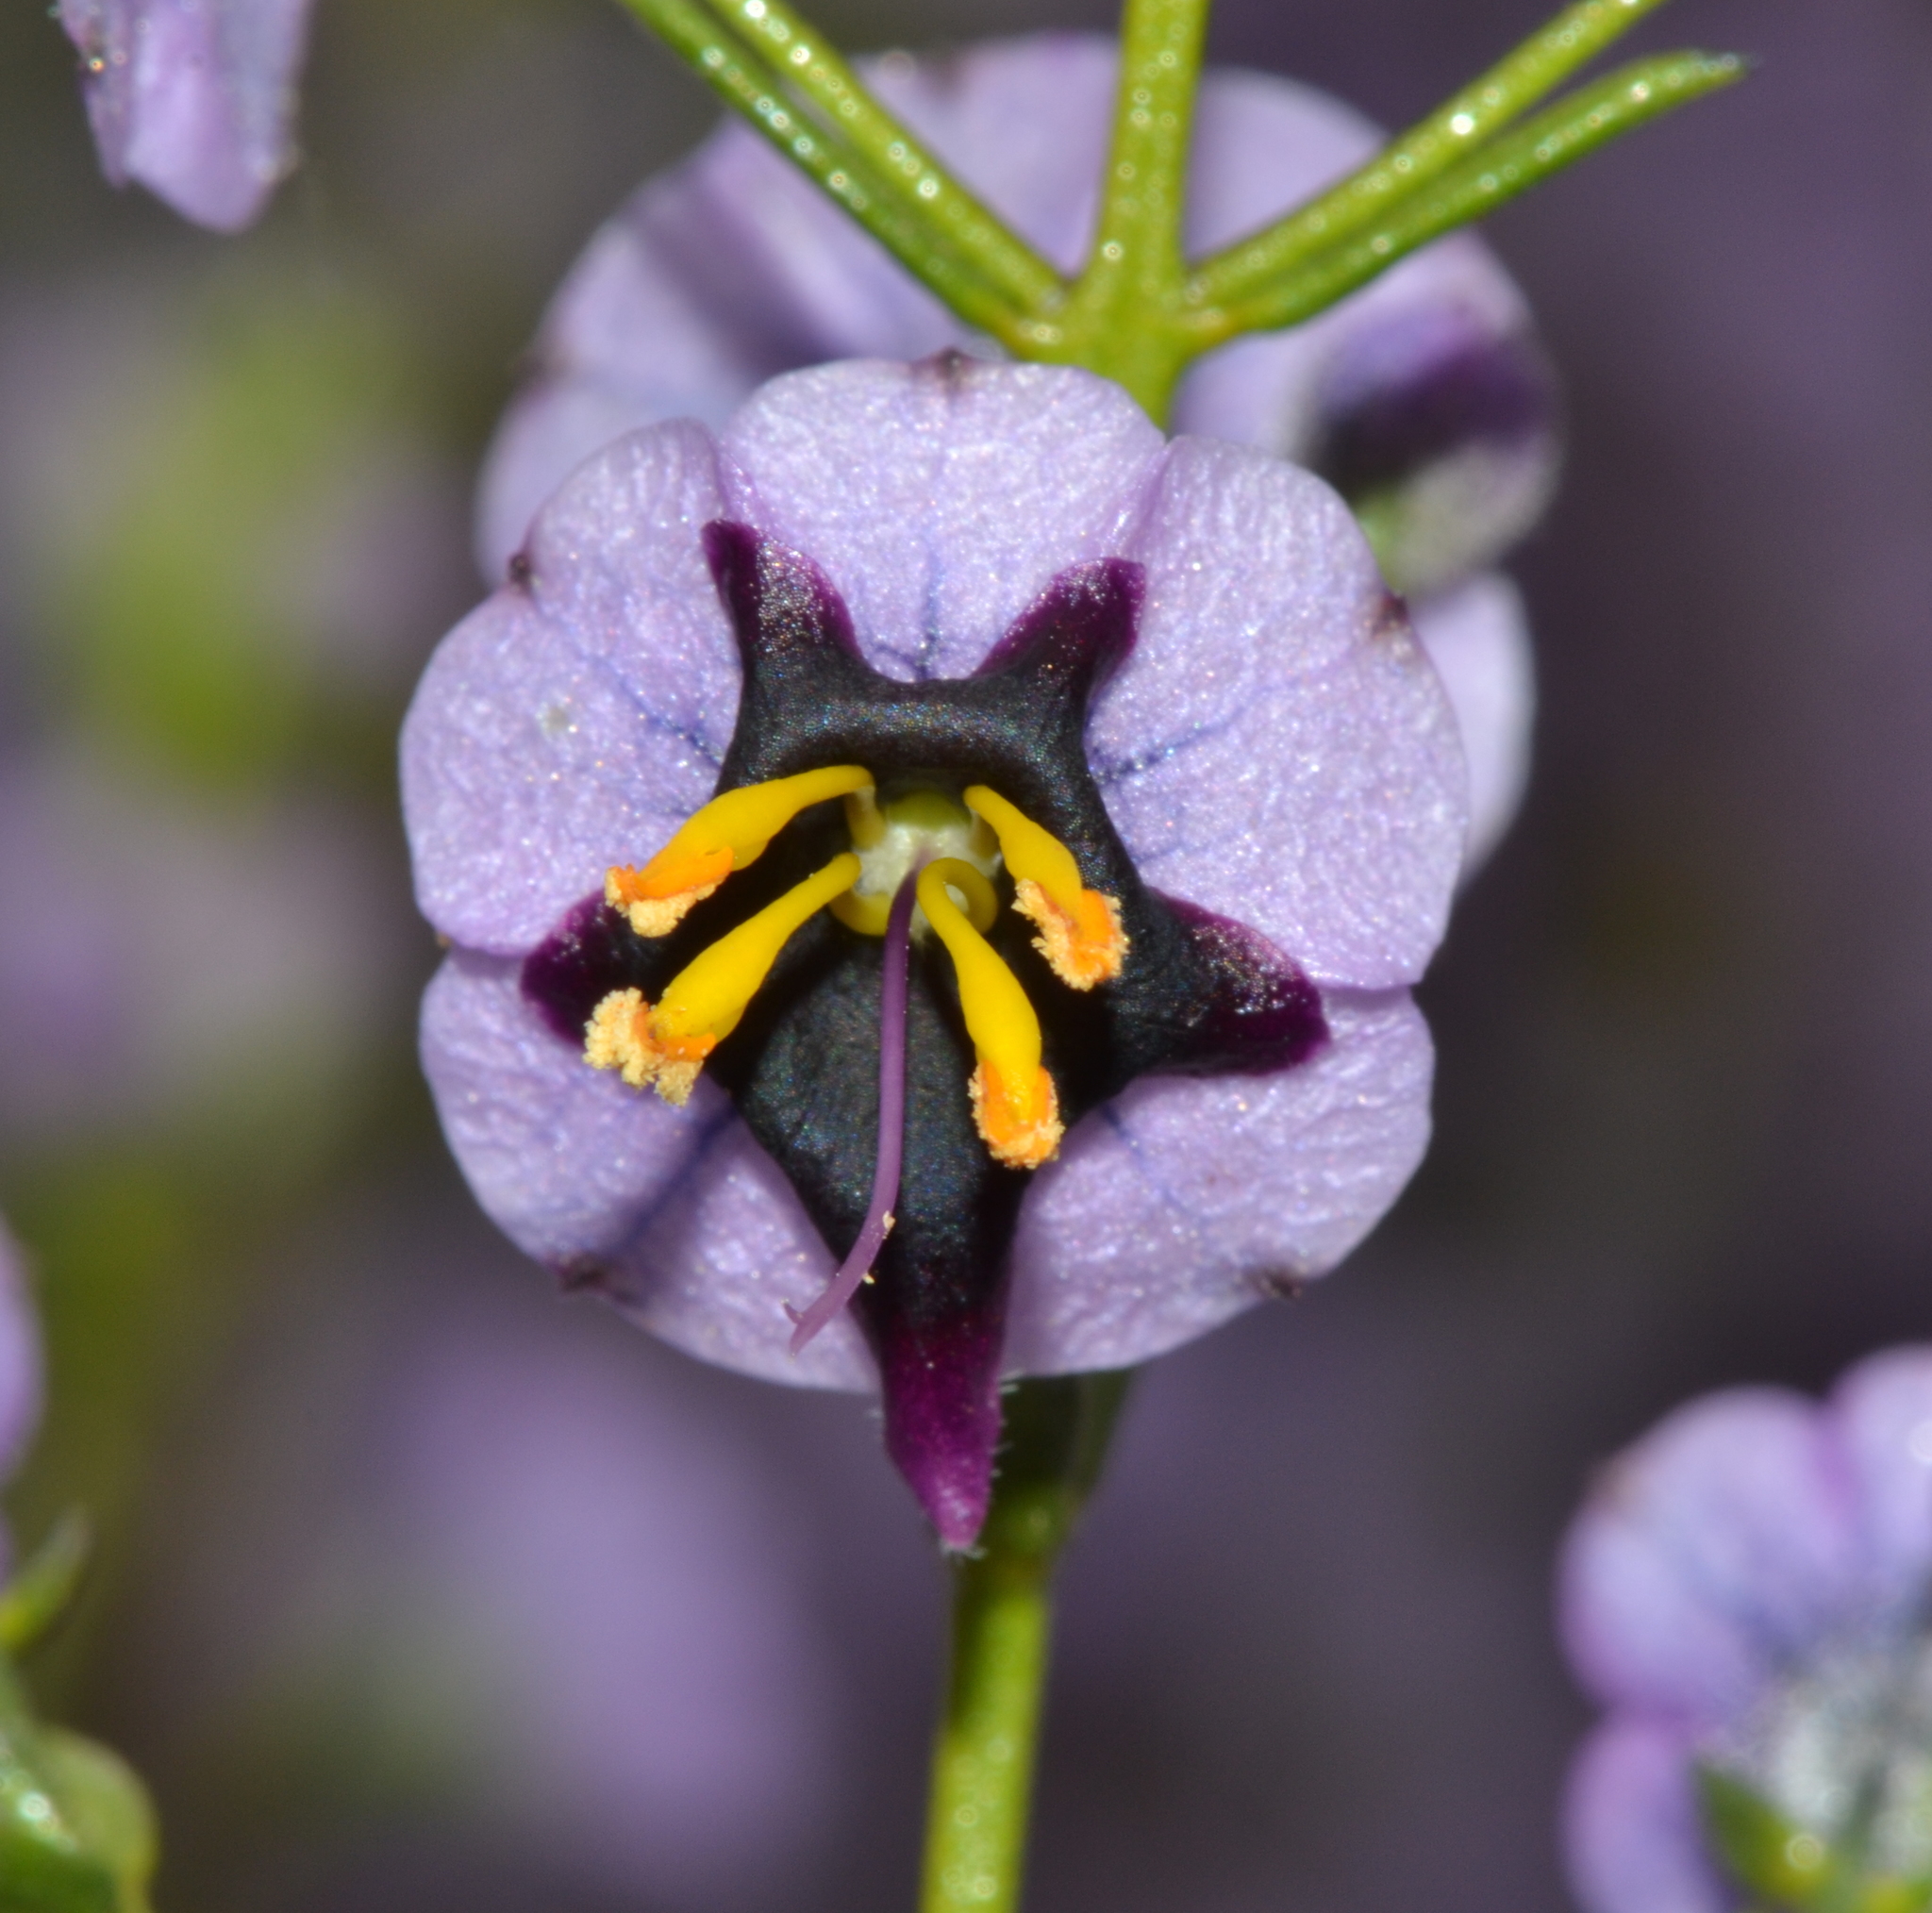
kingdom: Plantae
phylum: Tracheophyta
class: Magnoliopsida
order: Lamiales
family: Lamiaceae
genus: Cyanostegia
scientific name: Cyanostegia angustifolia
